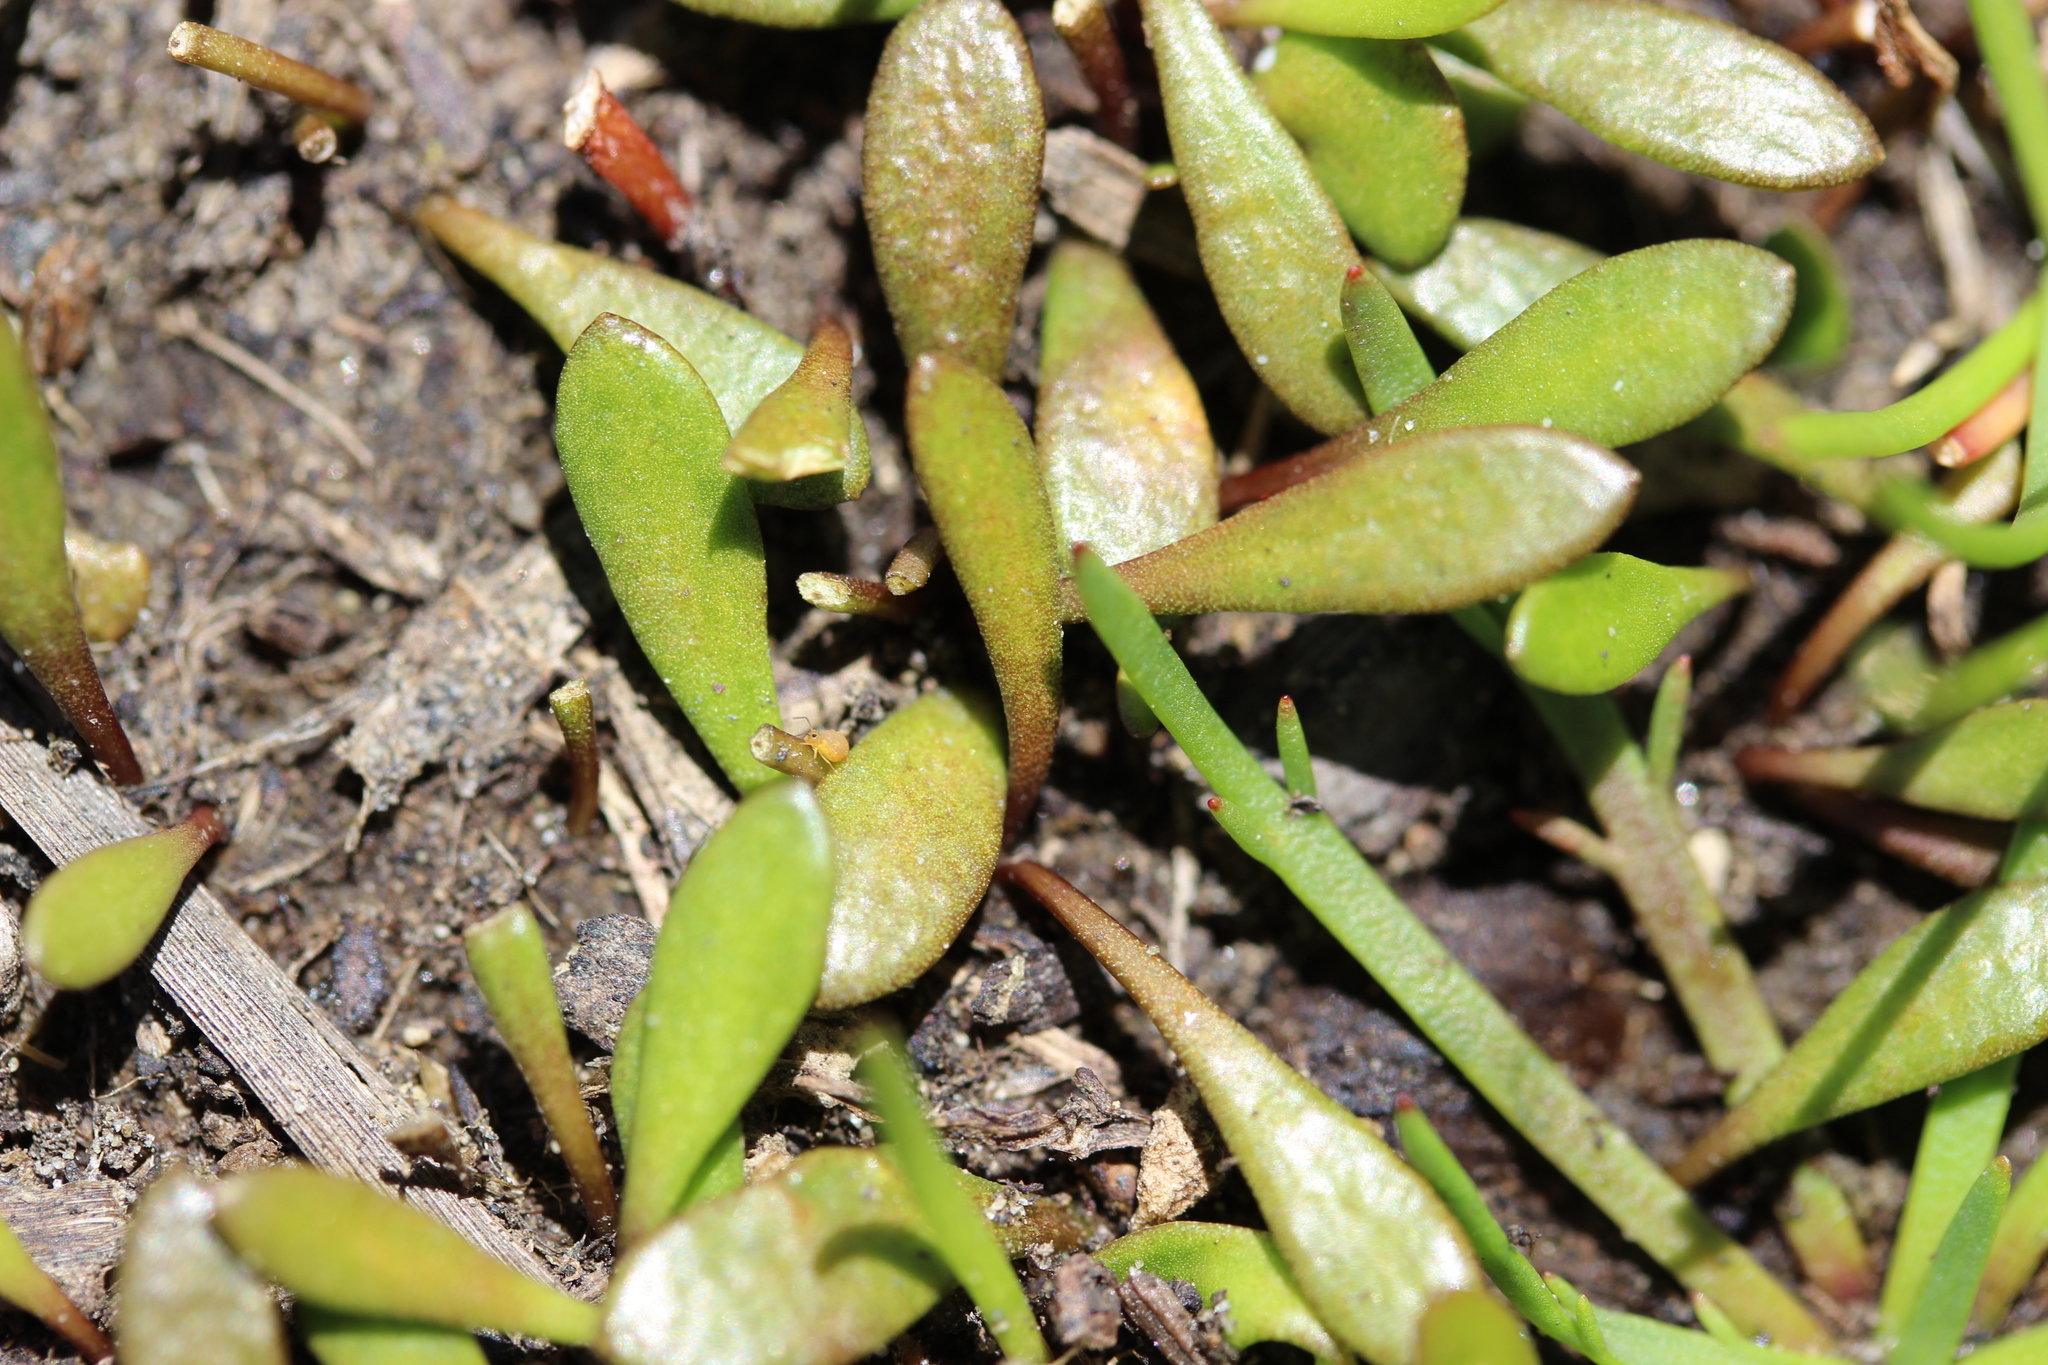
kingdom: Plantae
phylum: Tracheophyta
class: Magnoliopsida
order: Asterales
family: Goodeniaceae
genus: Goodenia
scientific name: Goodenia radicans
